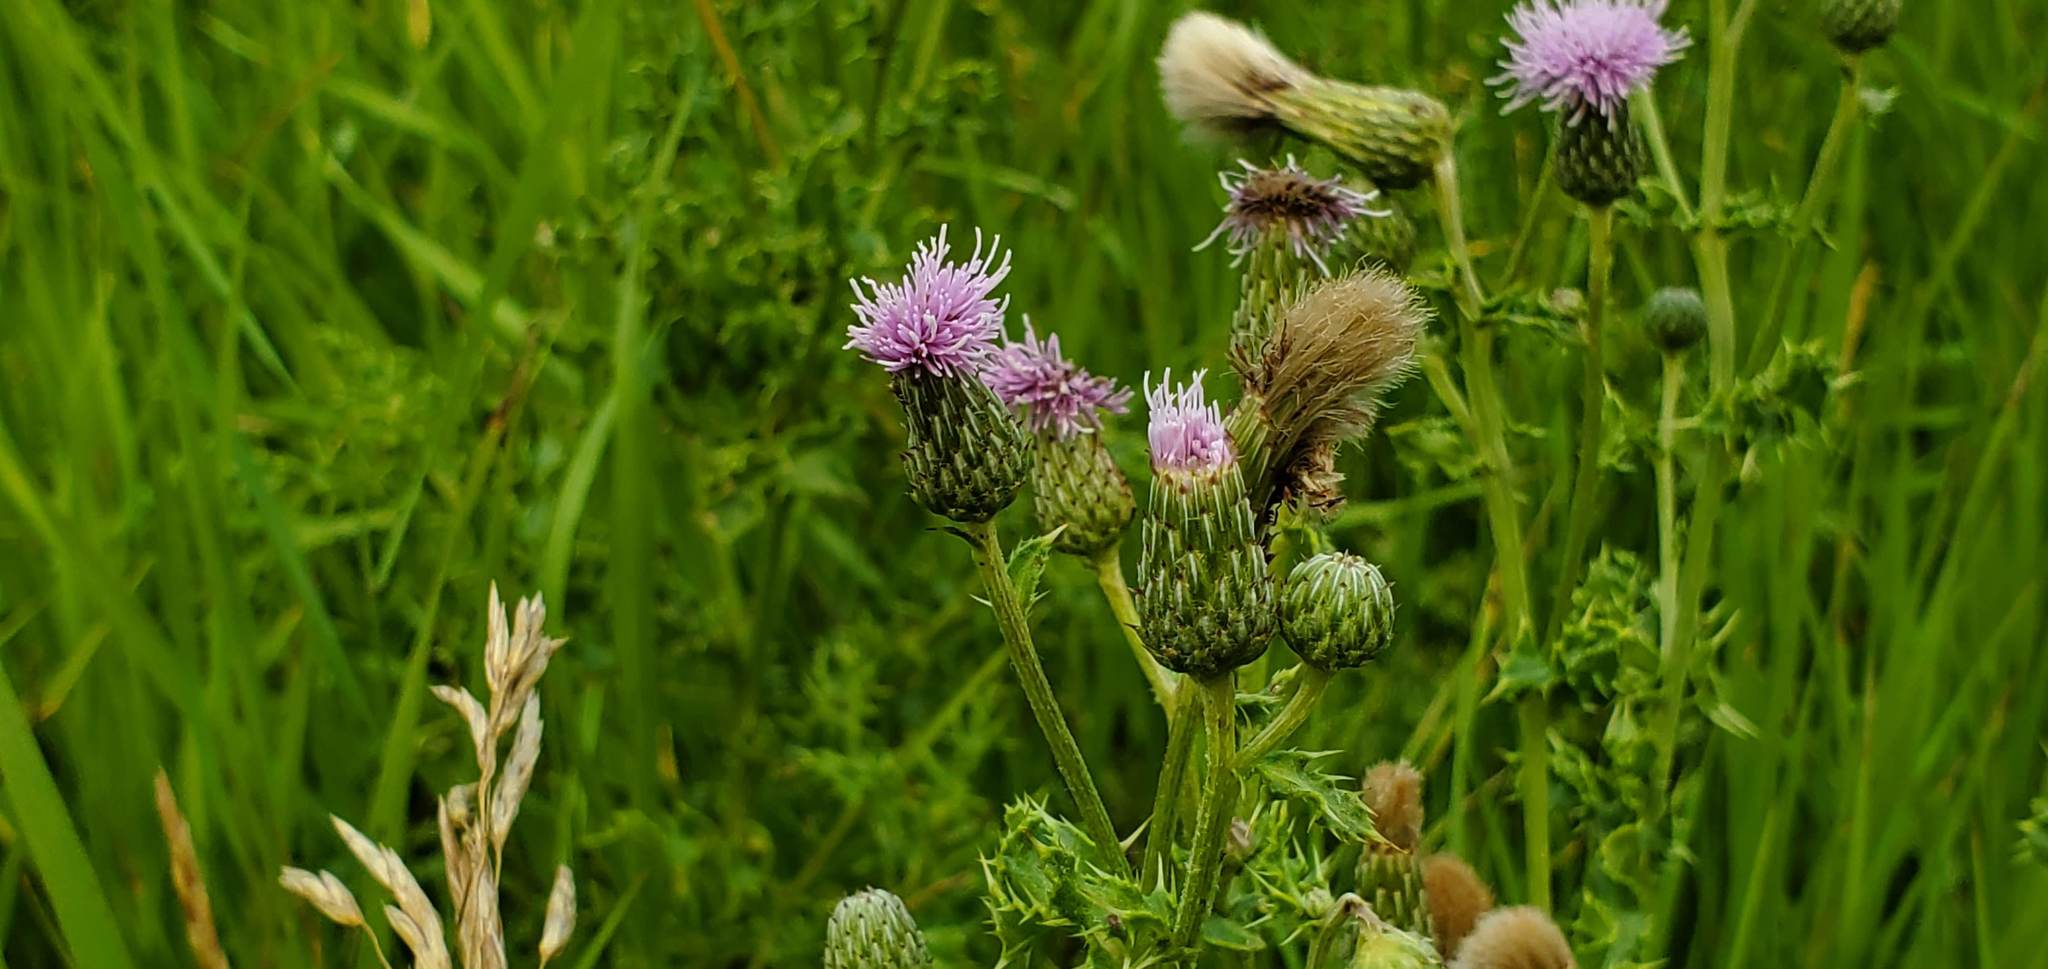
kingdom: Plantae
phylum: Tracheophyta
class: Magnoliopsida
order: Asterales
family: Asteraceae
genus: Cirsium
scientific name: Cirsium arvense
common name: Creeping thistle
